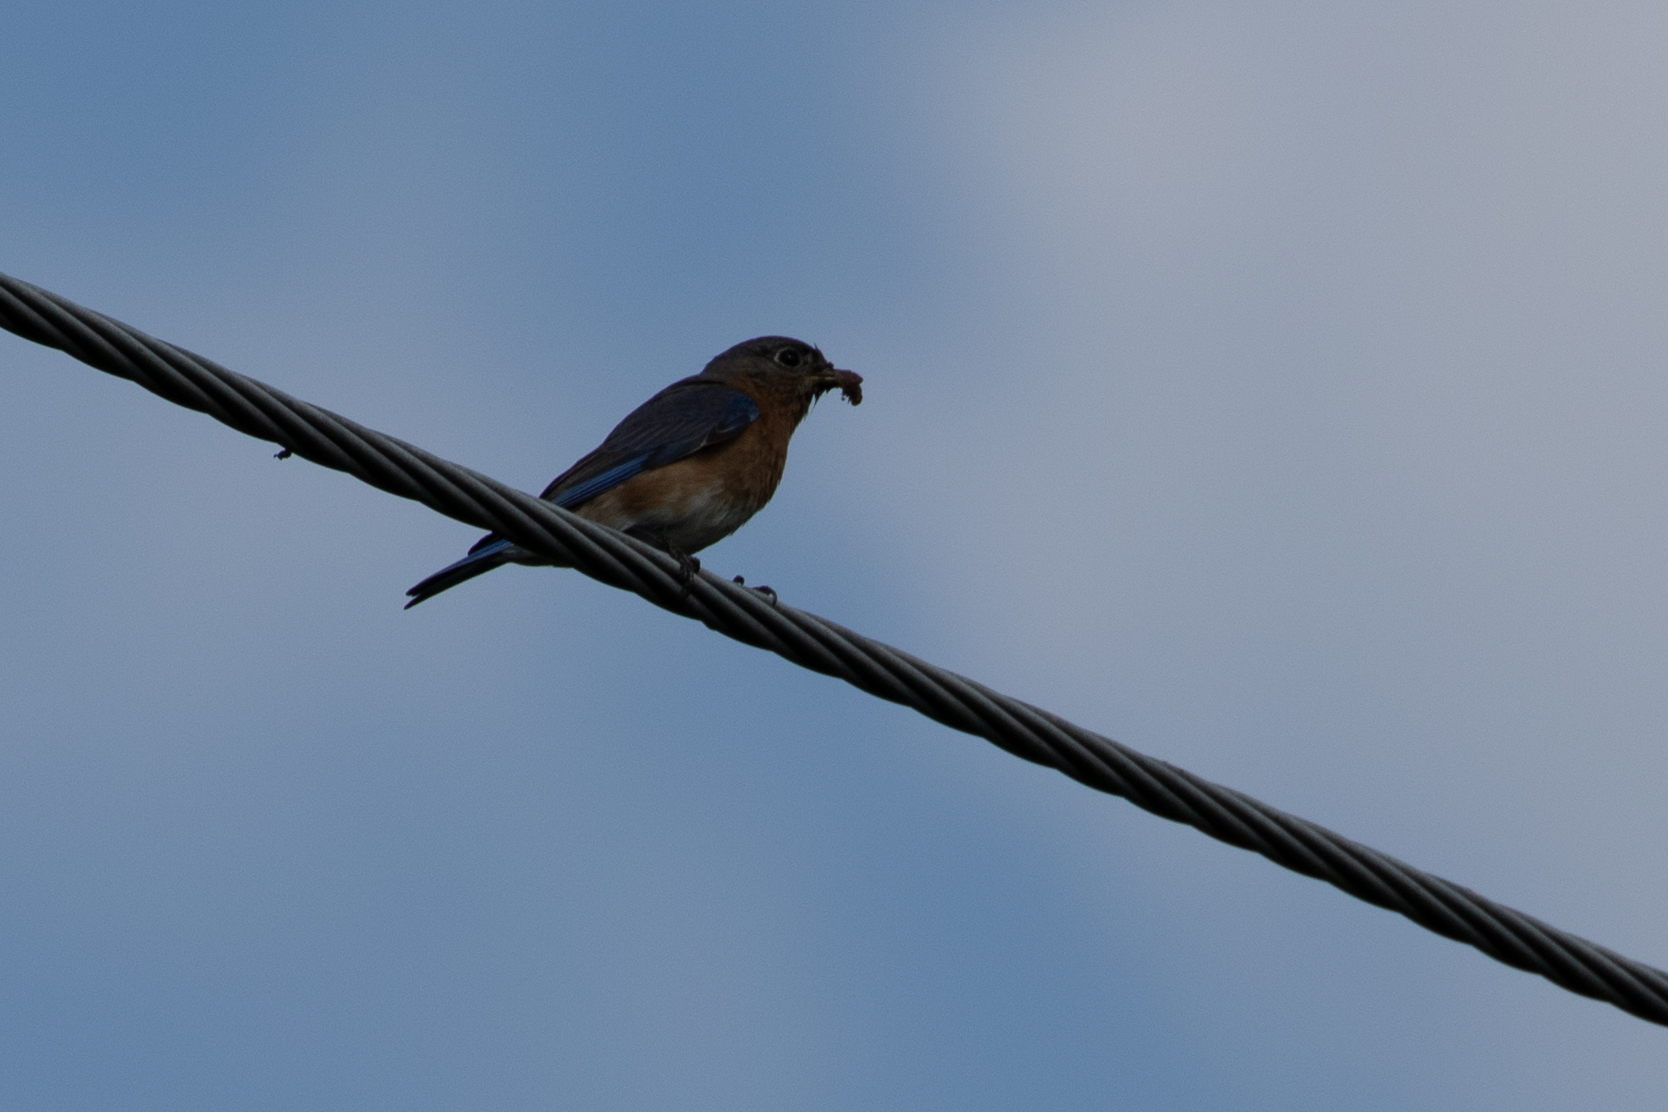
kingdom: Animalia
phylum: Chordata
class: Aves
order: Passeriformes
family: Turdidae
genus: Sialia
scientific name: Sialia sialis
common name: Eastern bluebird
